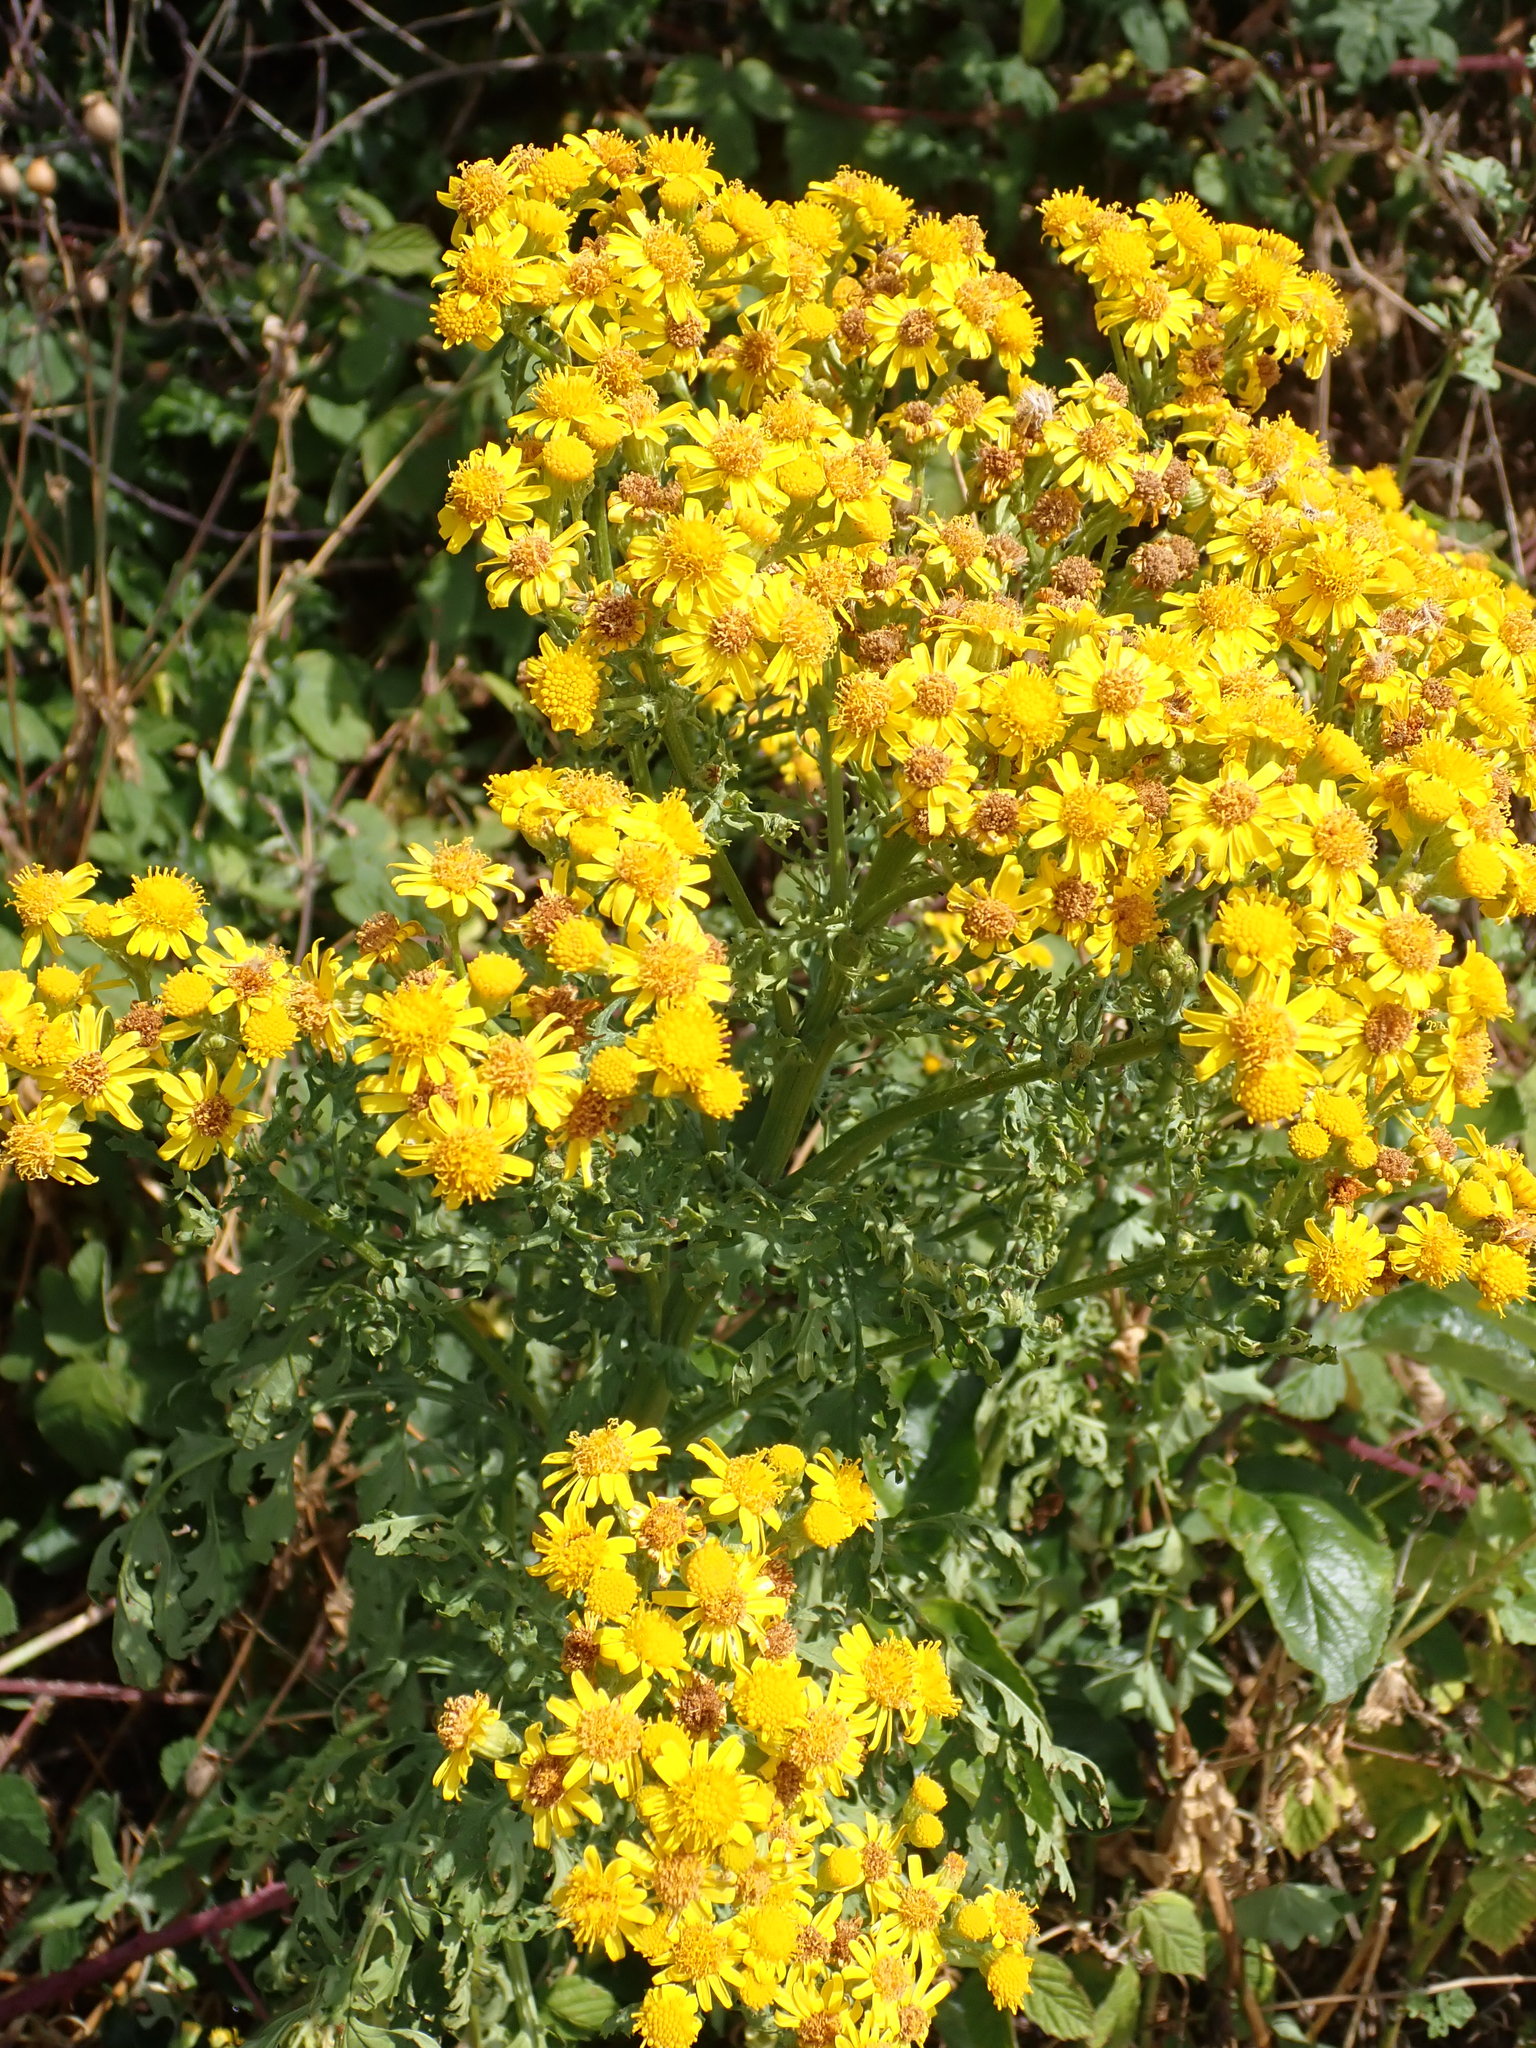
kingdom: Plantae
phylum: Tracheophyta
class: Magnoliopsida
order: Asterales
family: Asteraceae
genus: Jacobaea
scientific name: Jacobaea vulgaris
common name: Stinking willie
